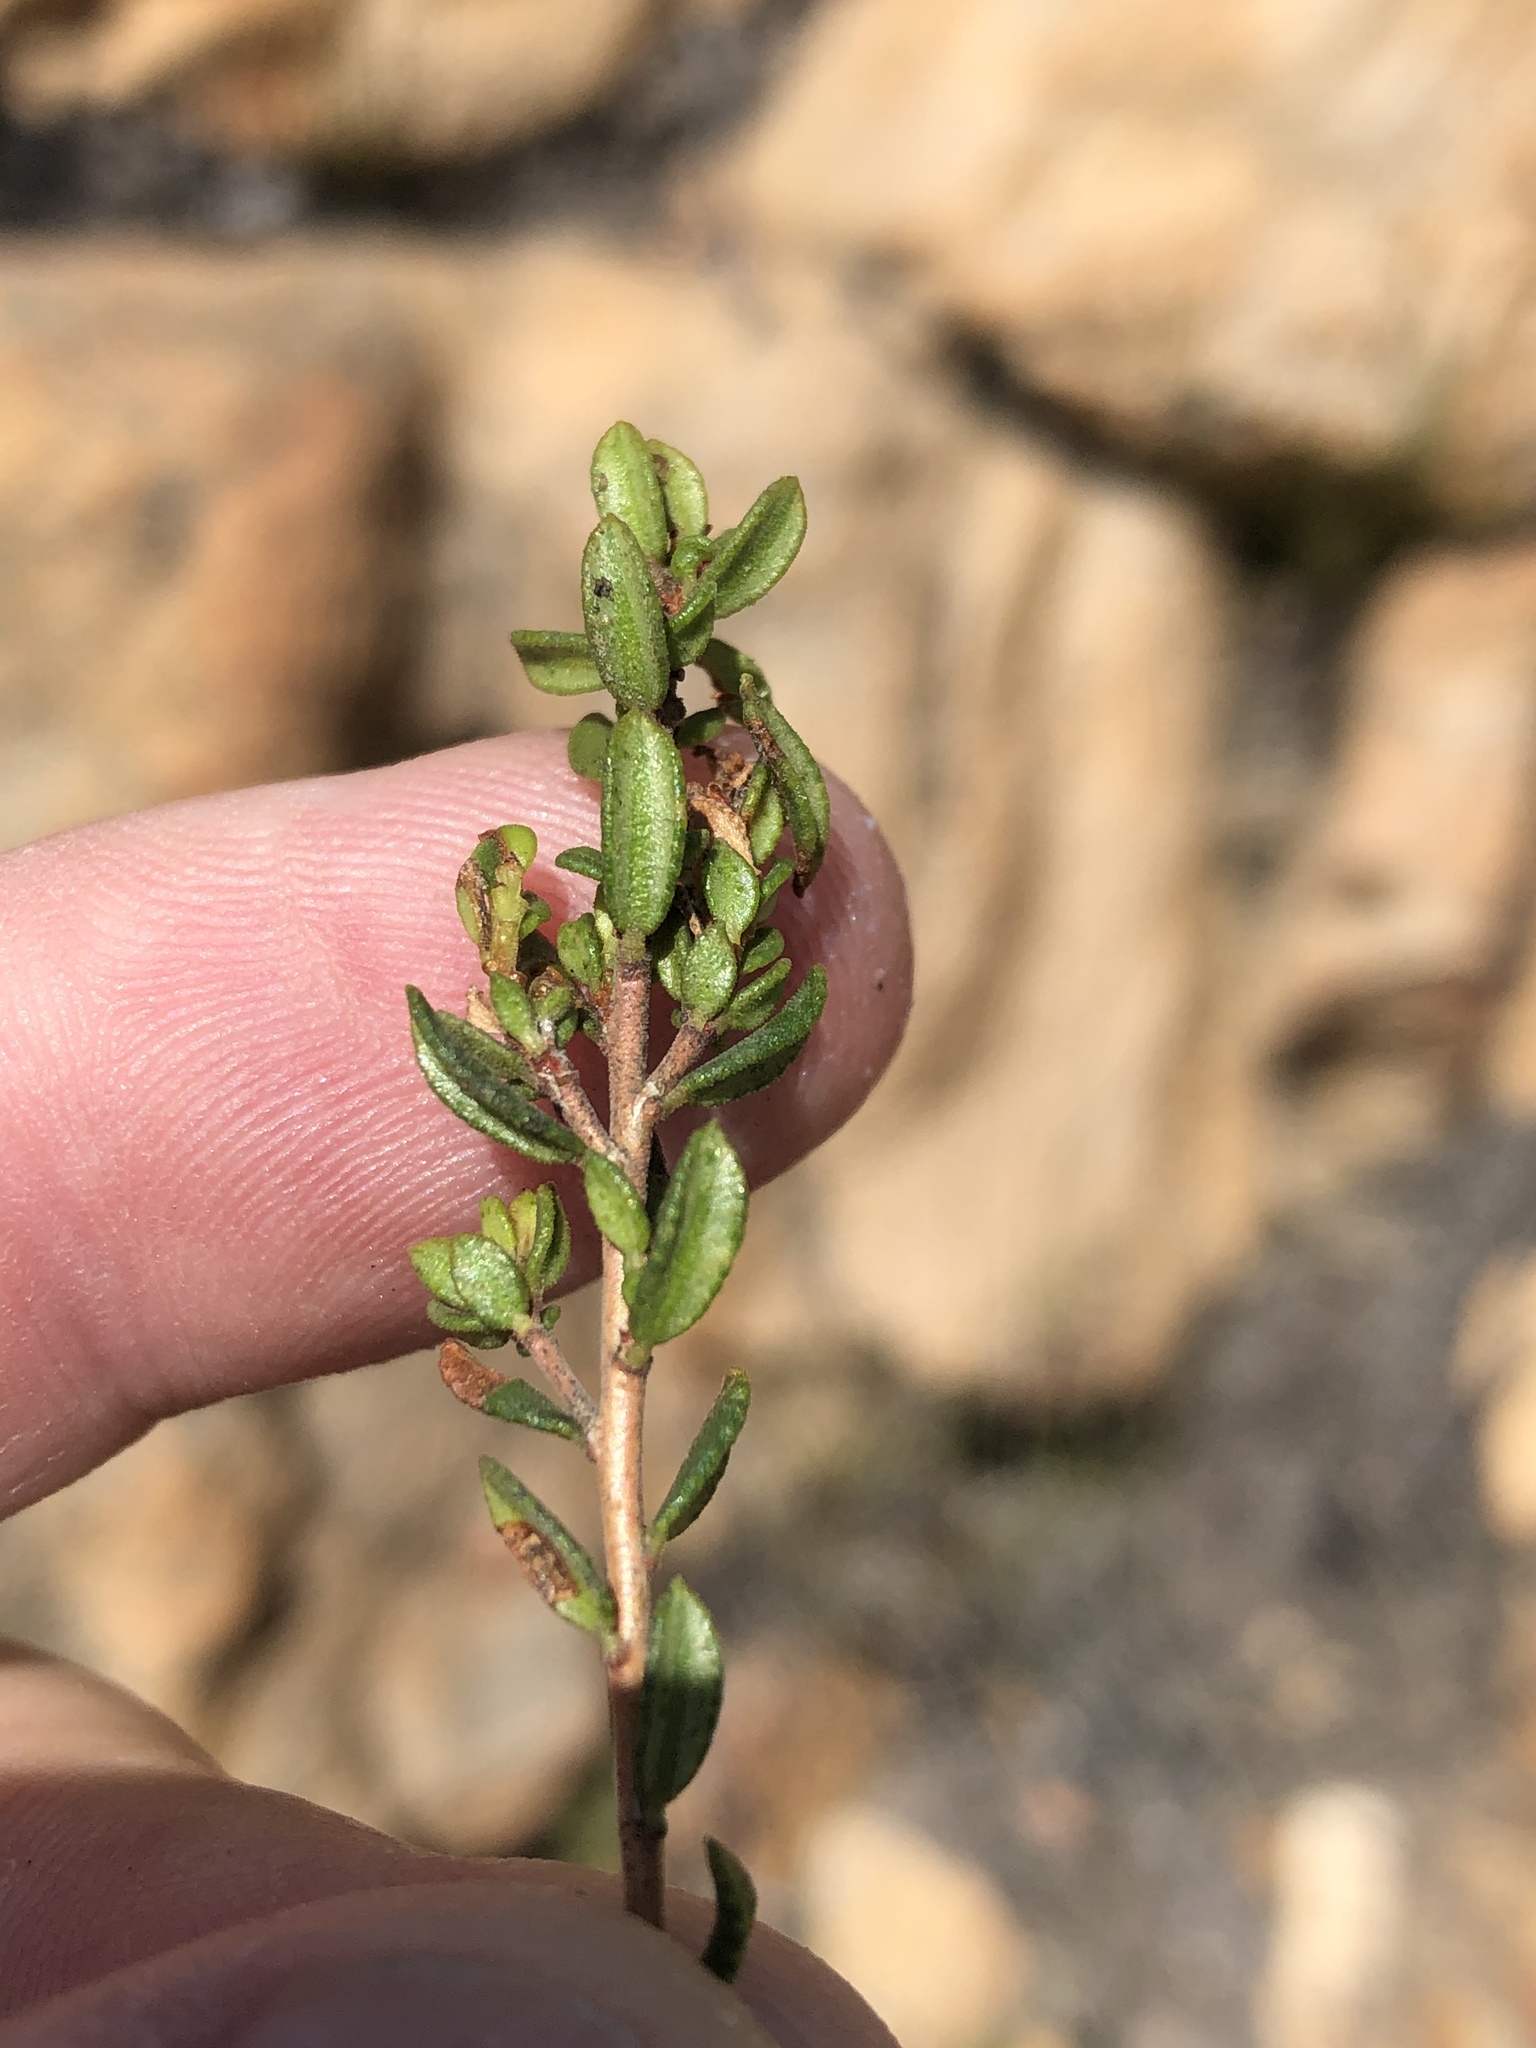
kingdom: Plantae
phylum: Tracheophyta
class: Magnoliopsida
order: Sapindales
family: Rutaceae
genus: Agathosma
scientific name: Agathosma mundtii
